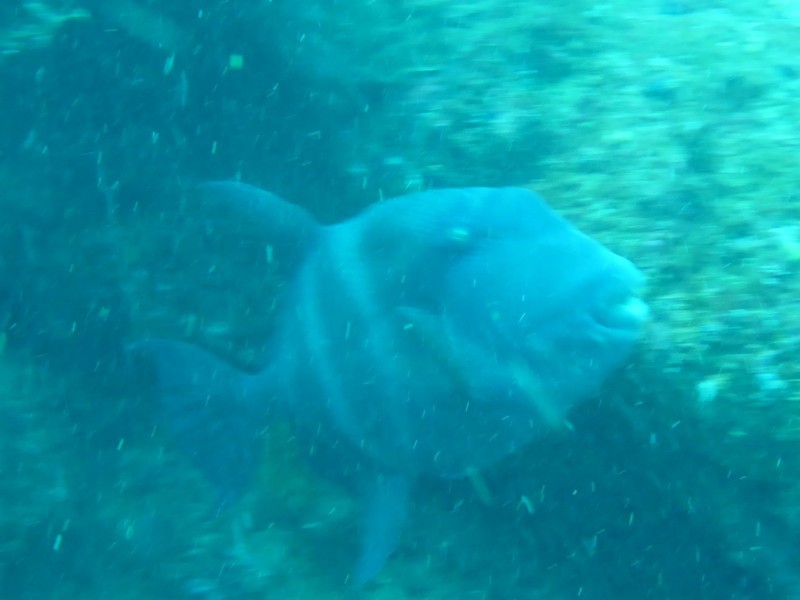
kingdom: Animalia
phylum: Chordata
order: Tetraodontiformes
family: Balistidae
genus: Pseudobalistes
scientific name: Pseudobalistes naufragium
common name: Blunthead triggerfish
